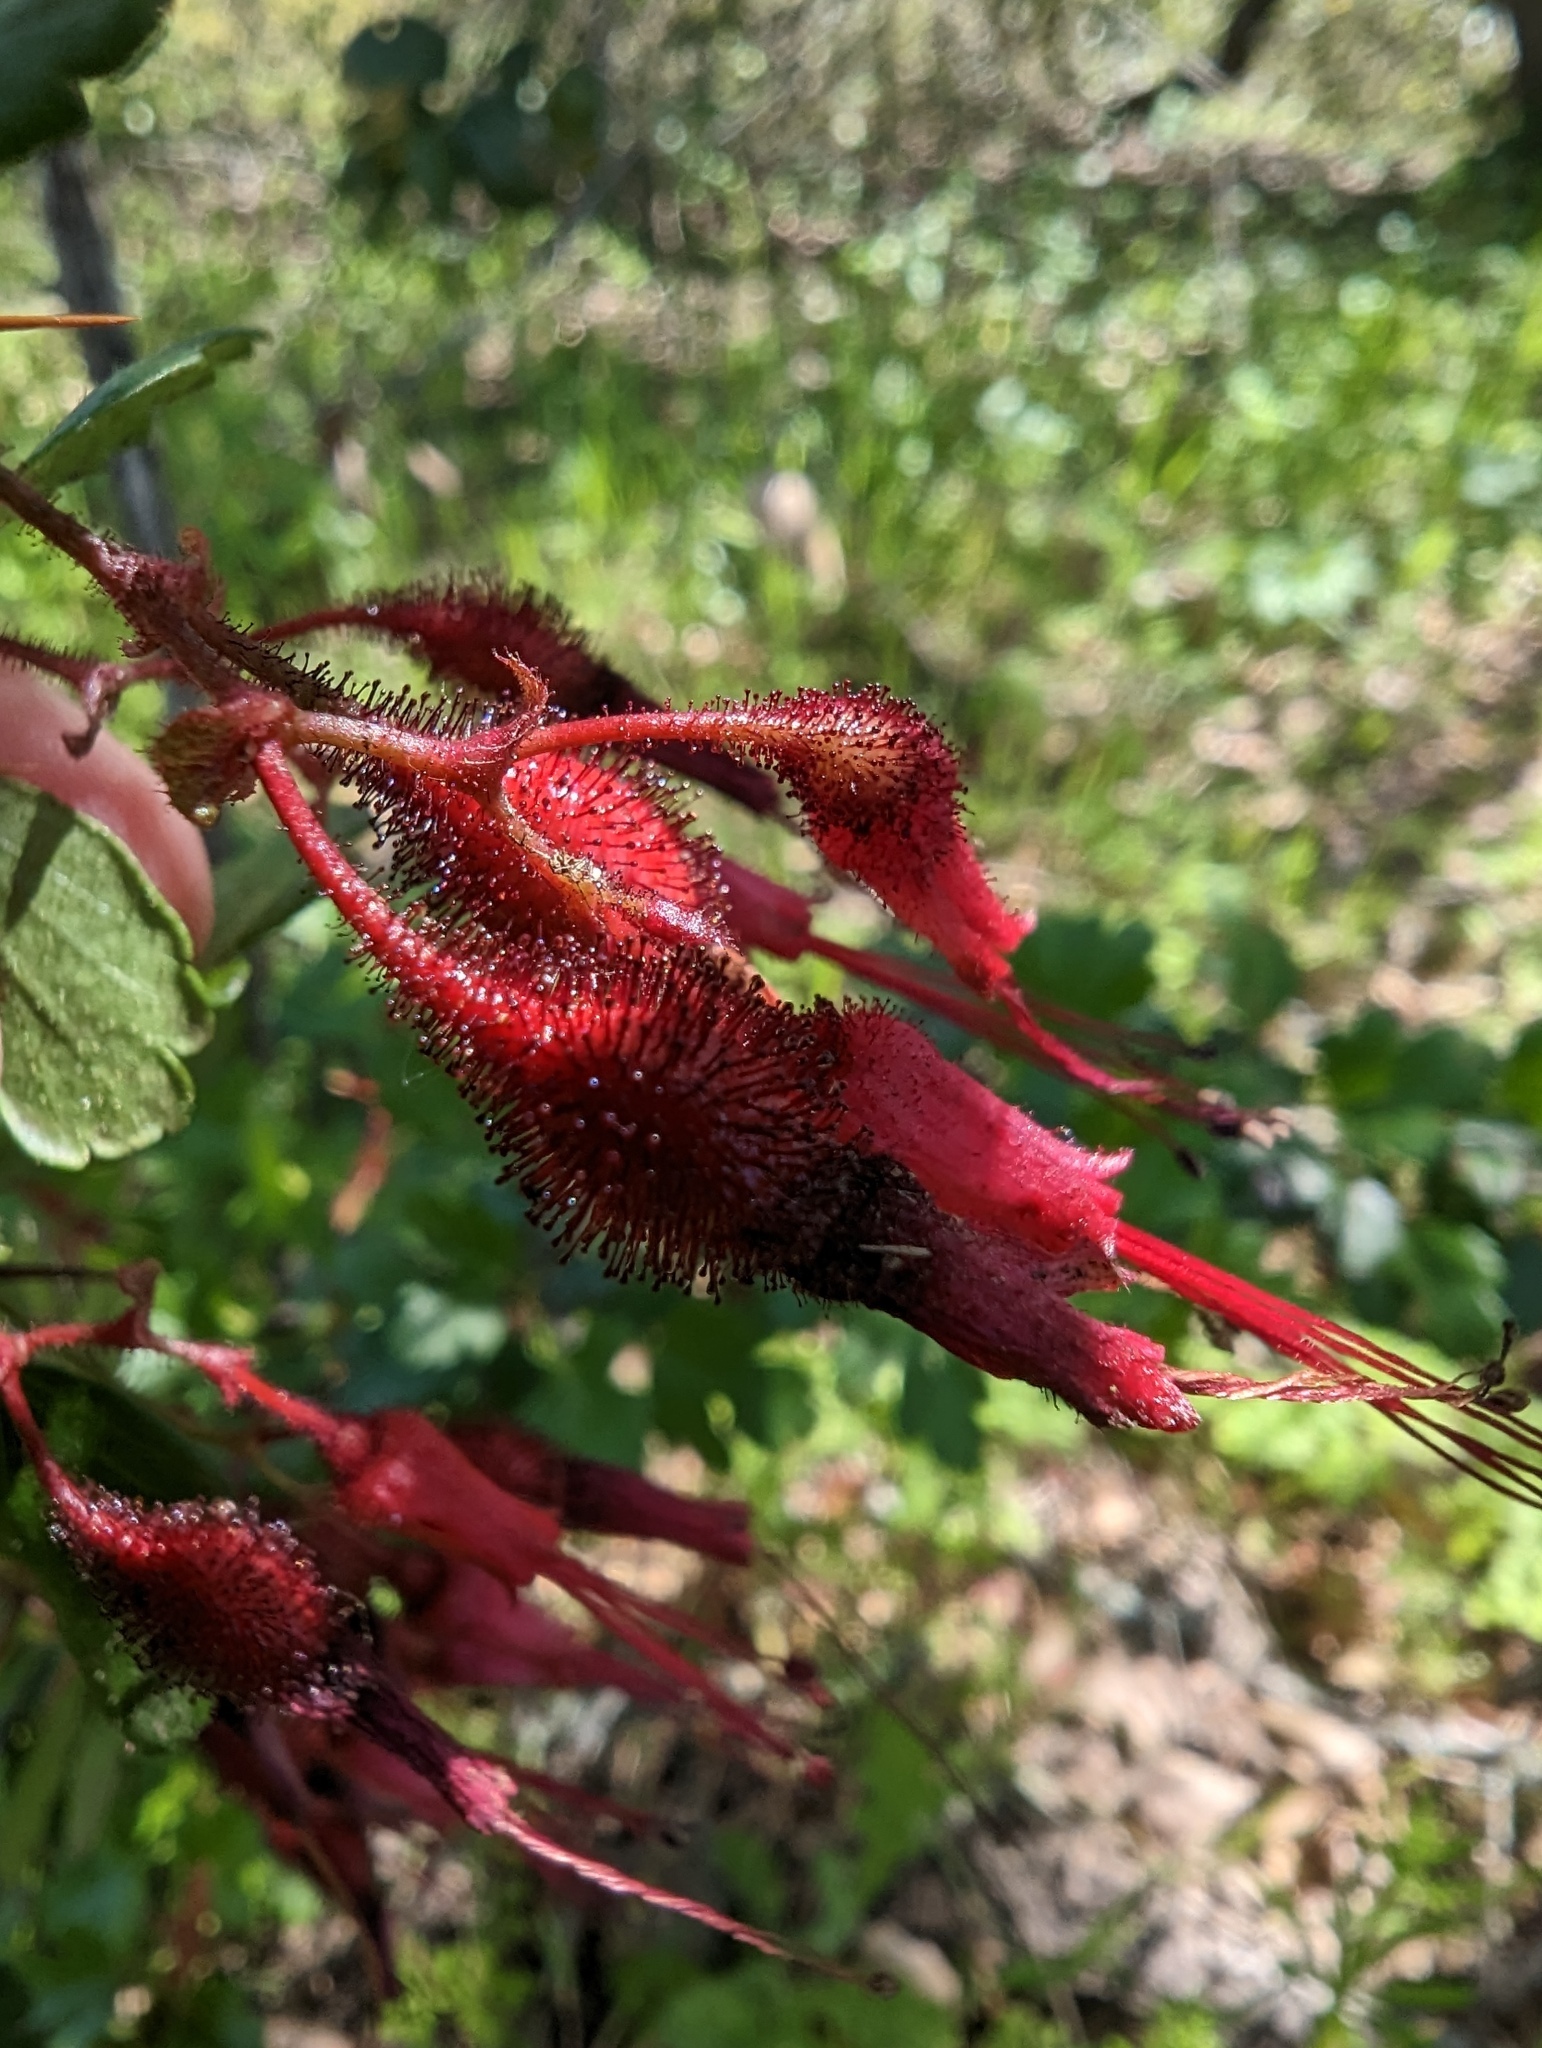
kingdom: Plantae
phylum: Tracheophyta
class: Magnoliopsida
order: Saxifragales
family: Grossulariaceae
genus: Ribes
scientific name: Ribes speciosum
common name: Fuchsia-flower gooseberry
